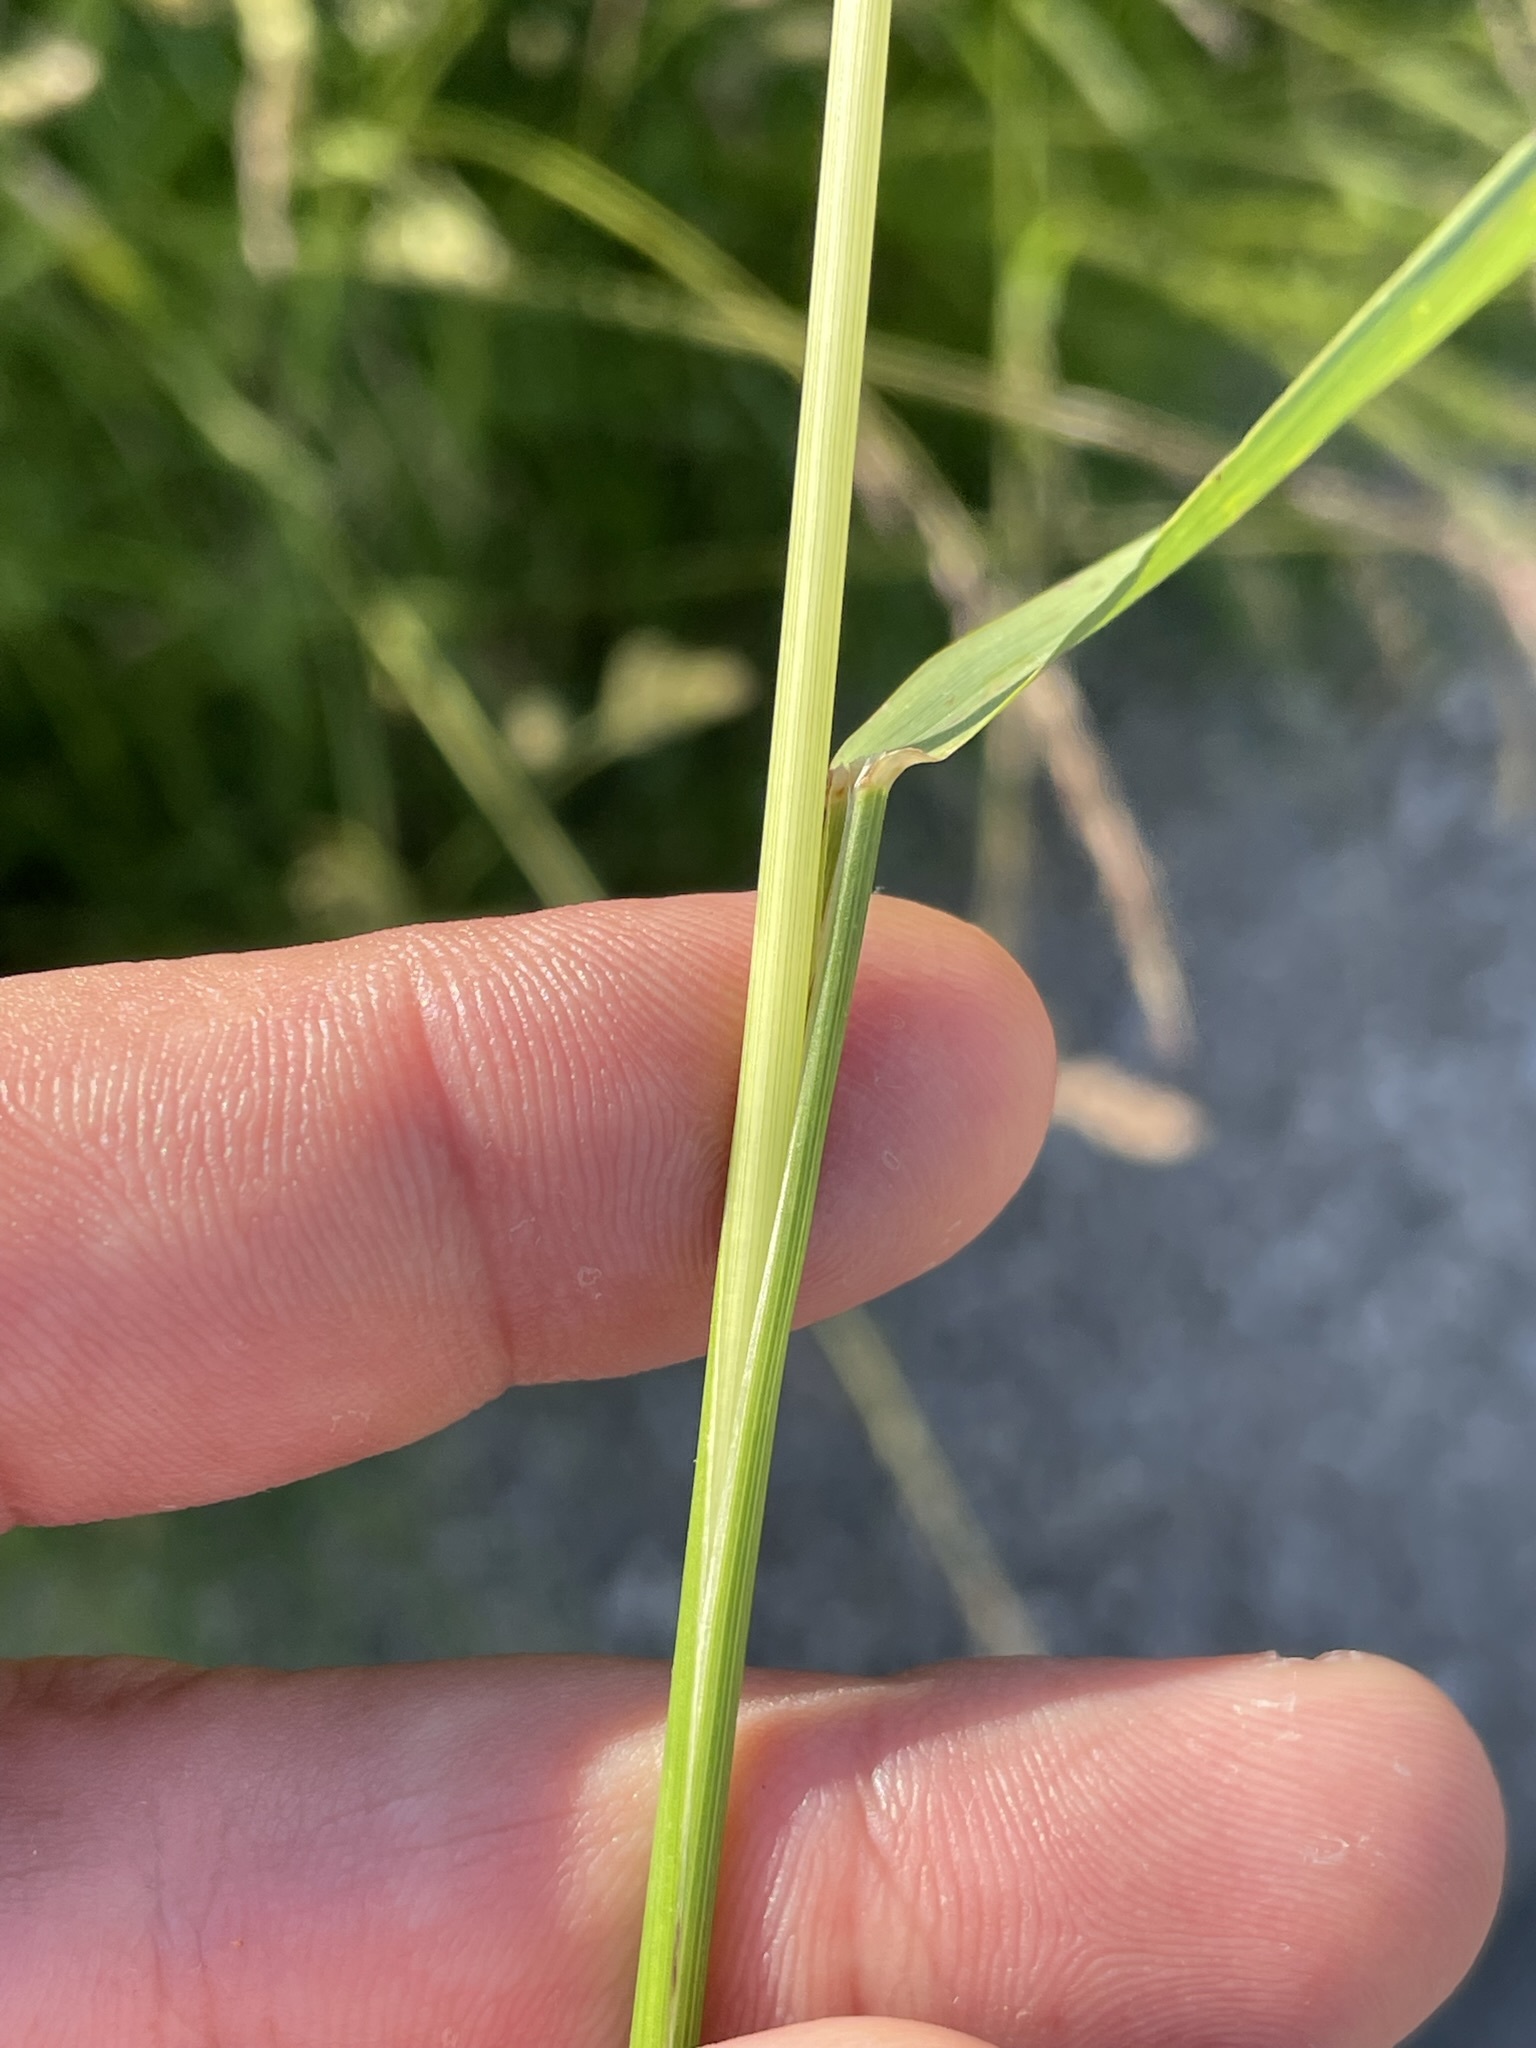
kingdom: Plantae
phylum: Tracheophyta
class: Liliopsida
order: Poales
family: Poaceae
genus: Arrhenatherum
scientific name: Arrhenatherum elatius
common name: Tall oatgrass
